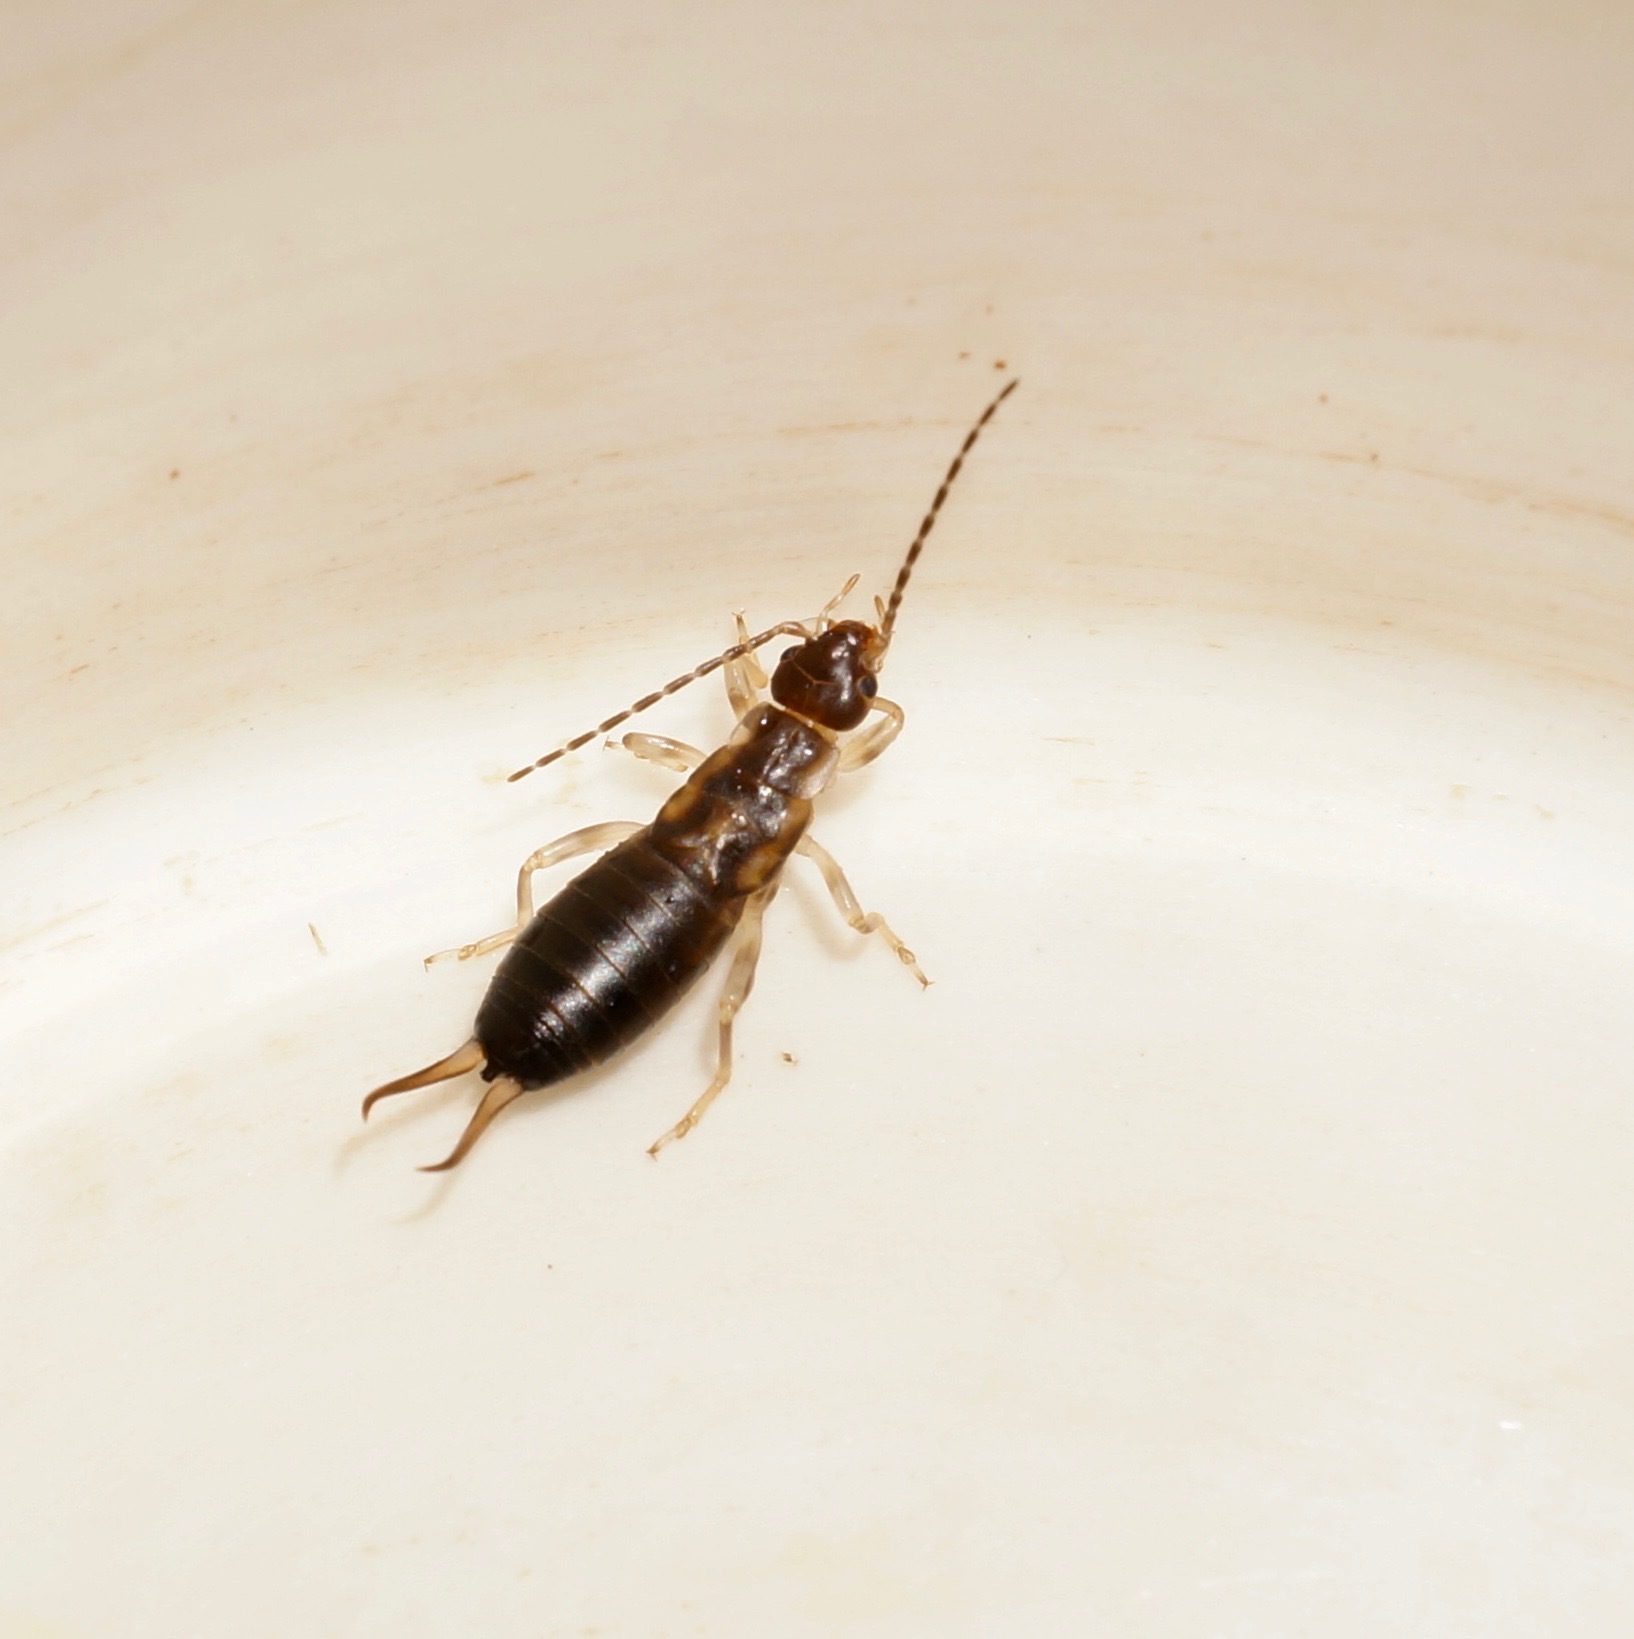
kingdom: Animalia
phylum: Arthropoda
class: Insecta
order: Dermaptera
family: Forficulidae
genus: Forficula
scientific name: Forficula
